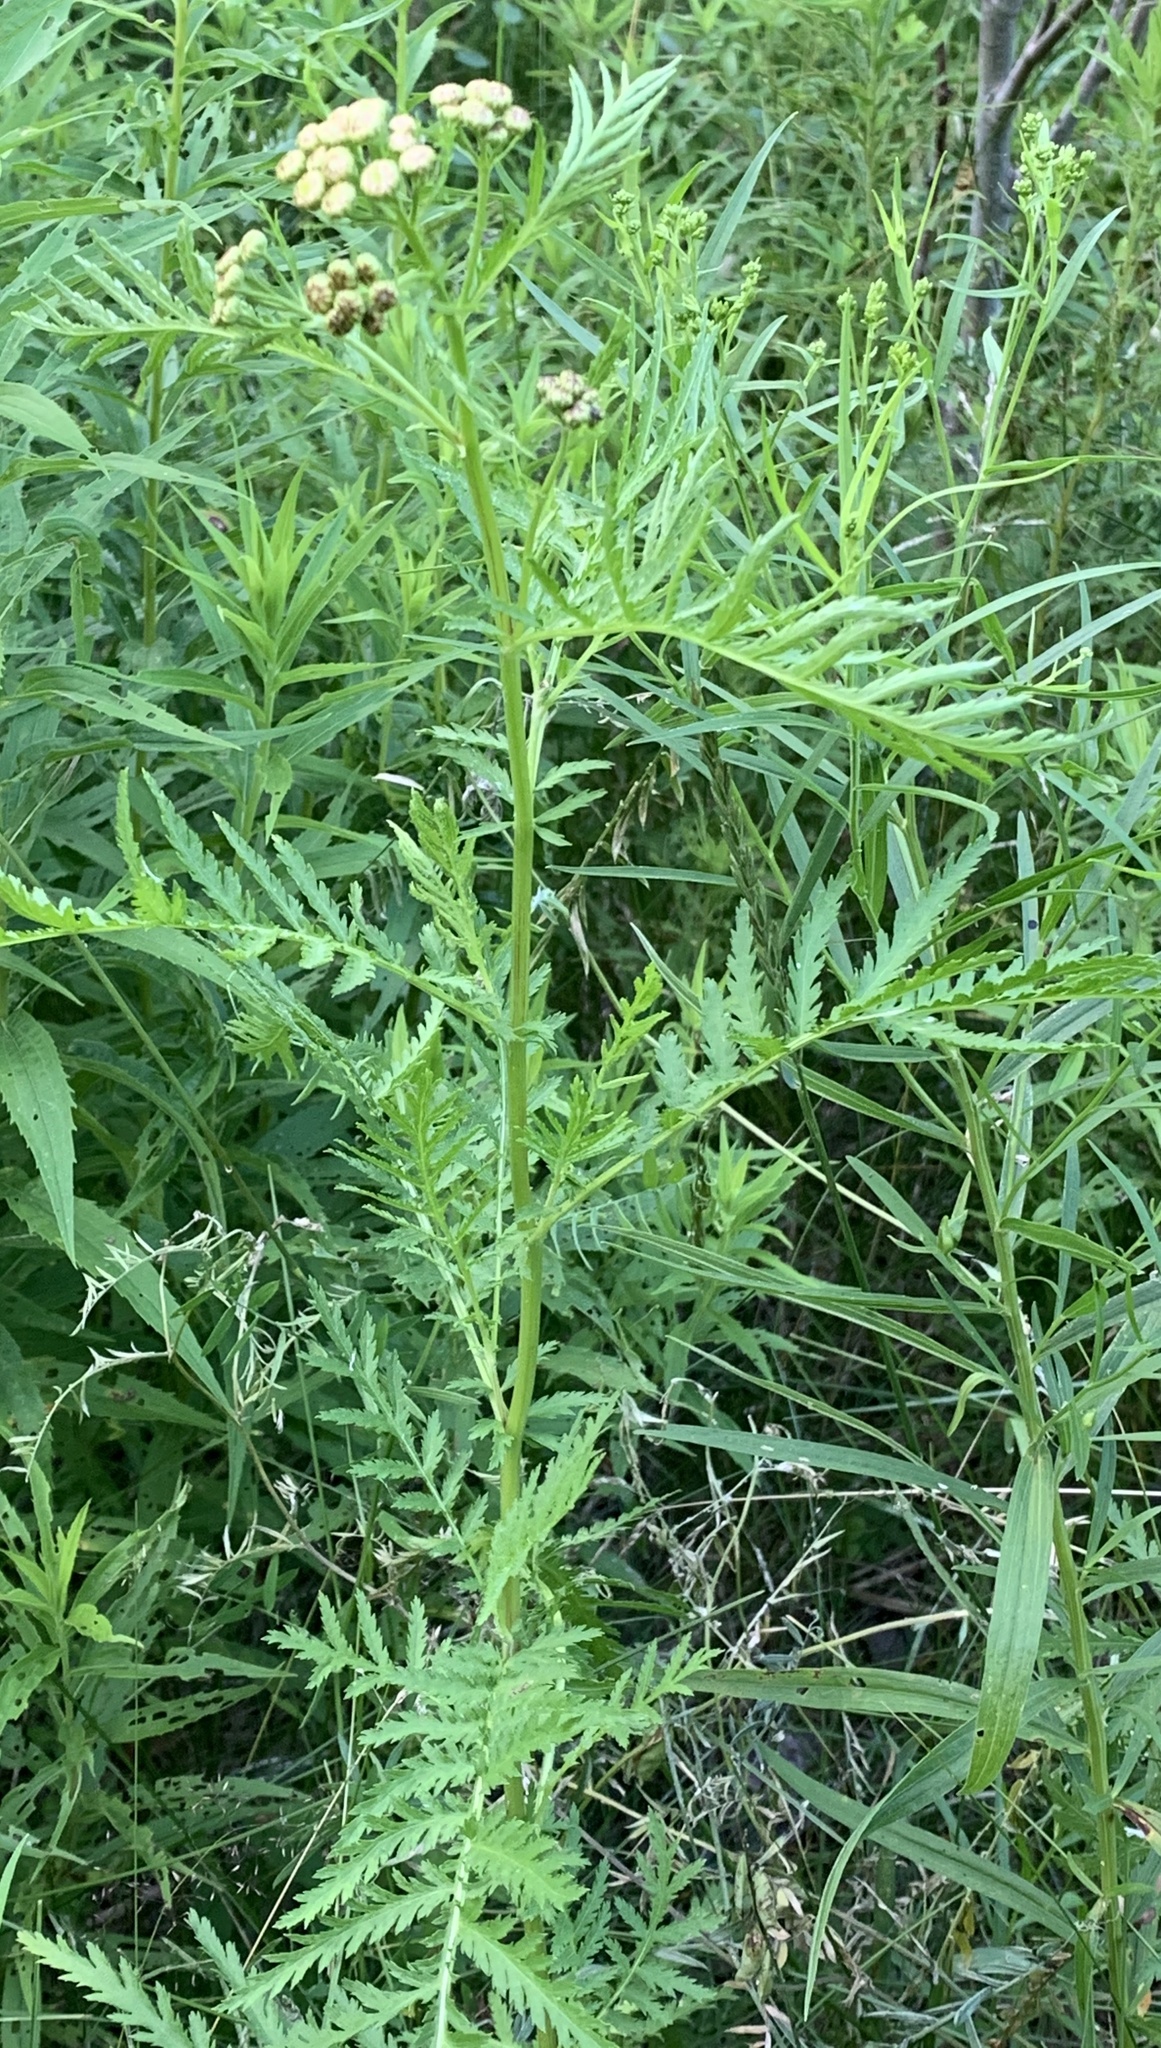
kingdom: Plantae
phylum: Tracheophyta
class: Magnoliopsida
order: Asterales
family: Asteraceae
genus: Tanacetum
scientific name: Tanacetum vulgare
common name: Common tansy
